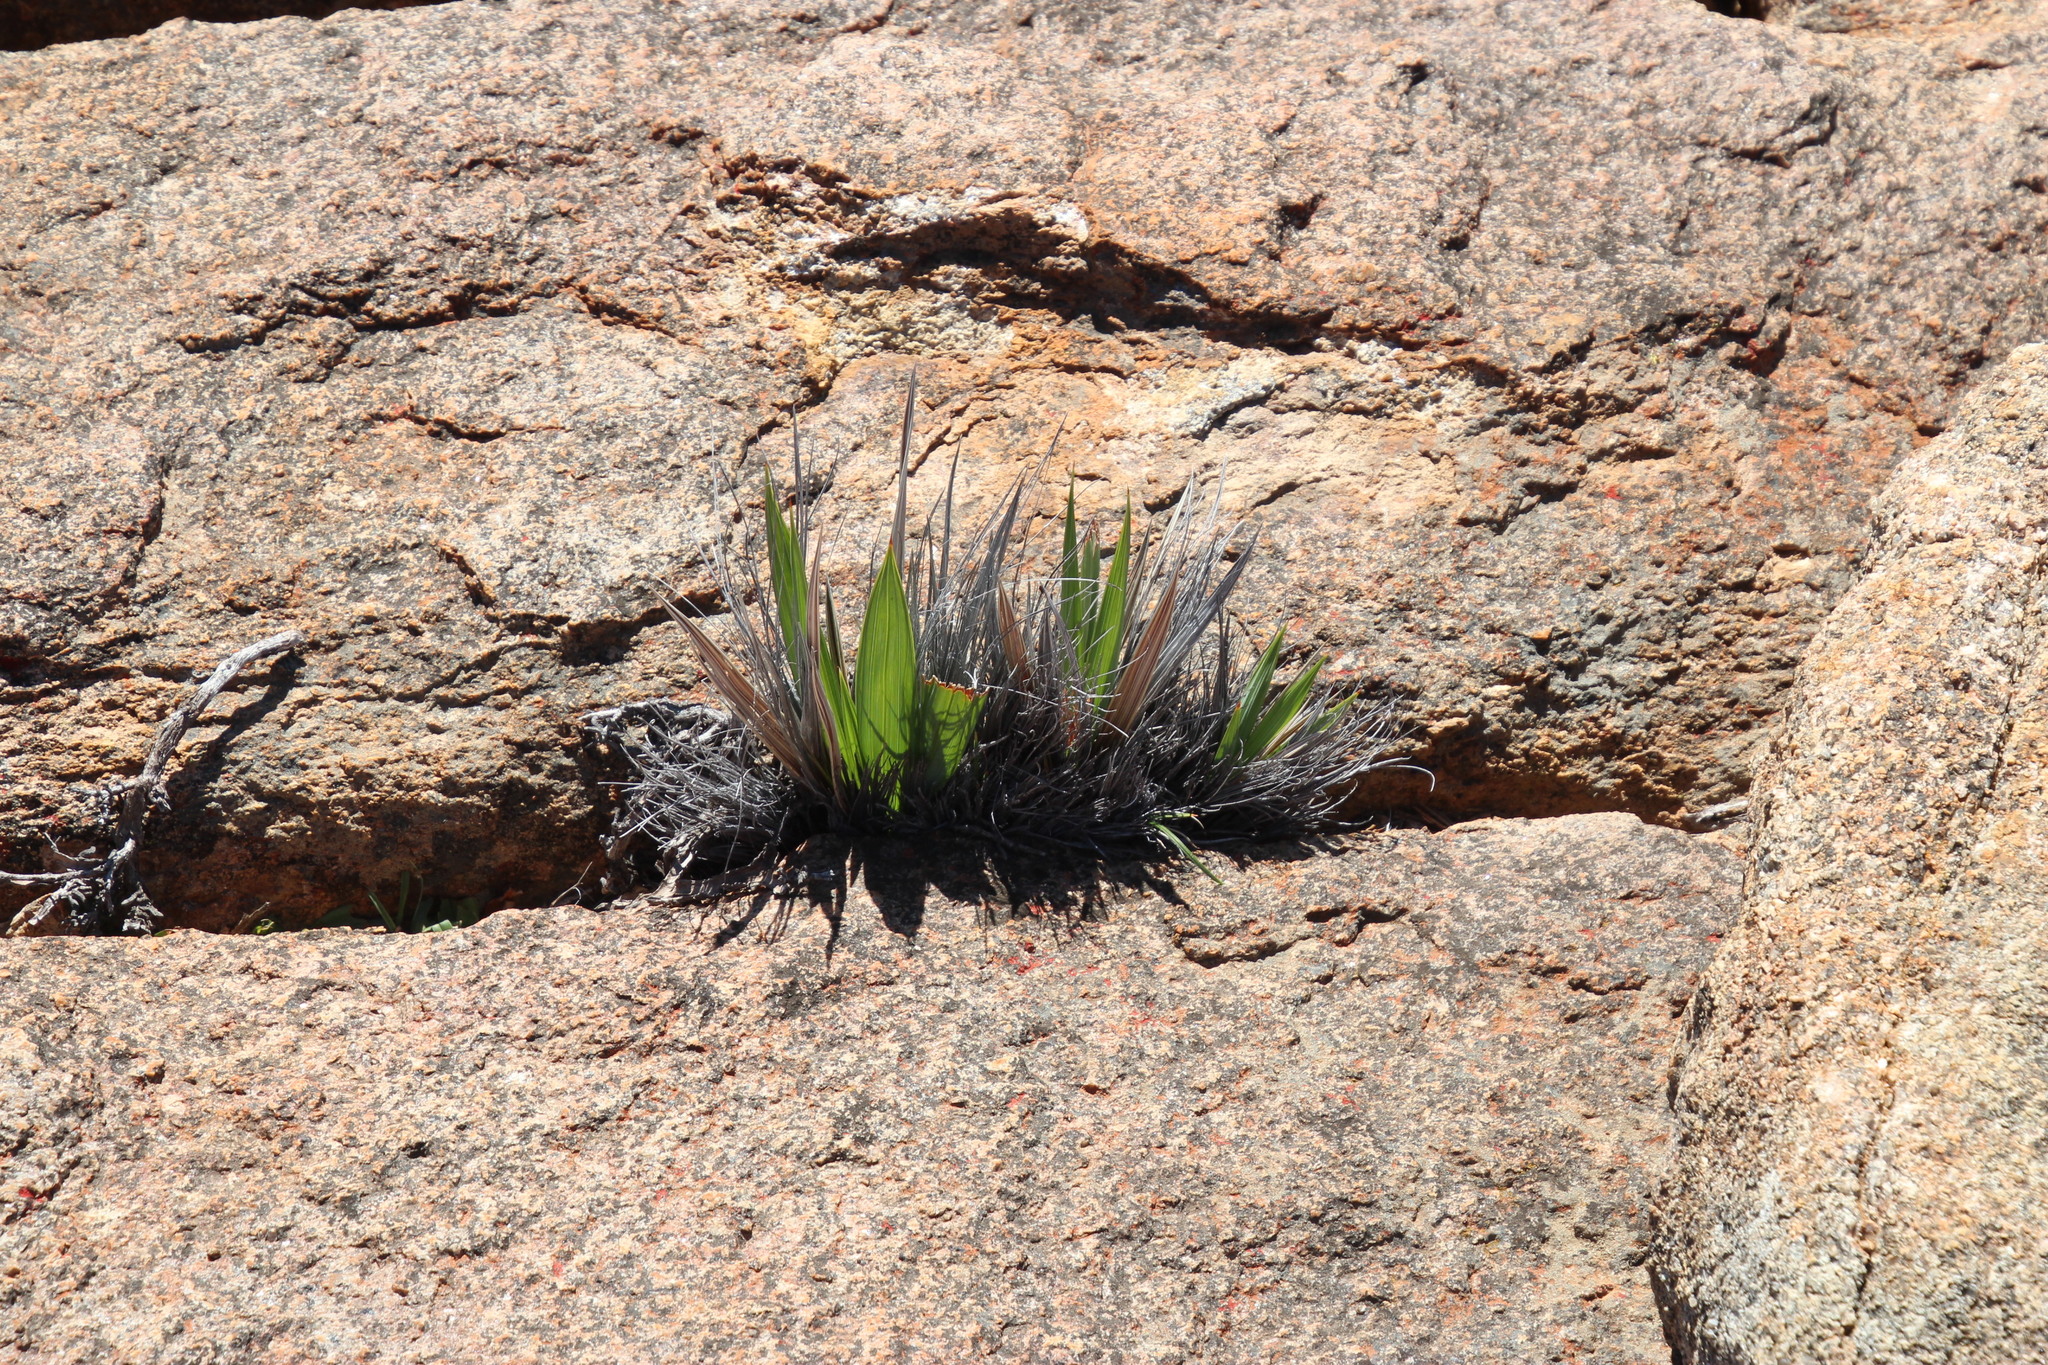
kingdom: Plantae
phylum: Tracheophyta
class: Liliopsida
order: Asparagales
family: Iridaceae
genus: Babiana
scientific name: Babiana dregei
